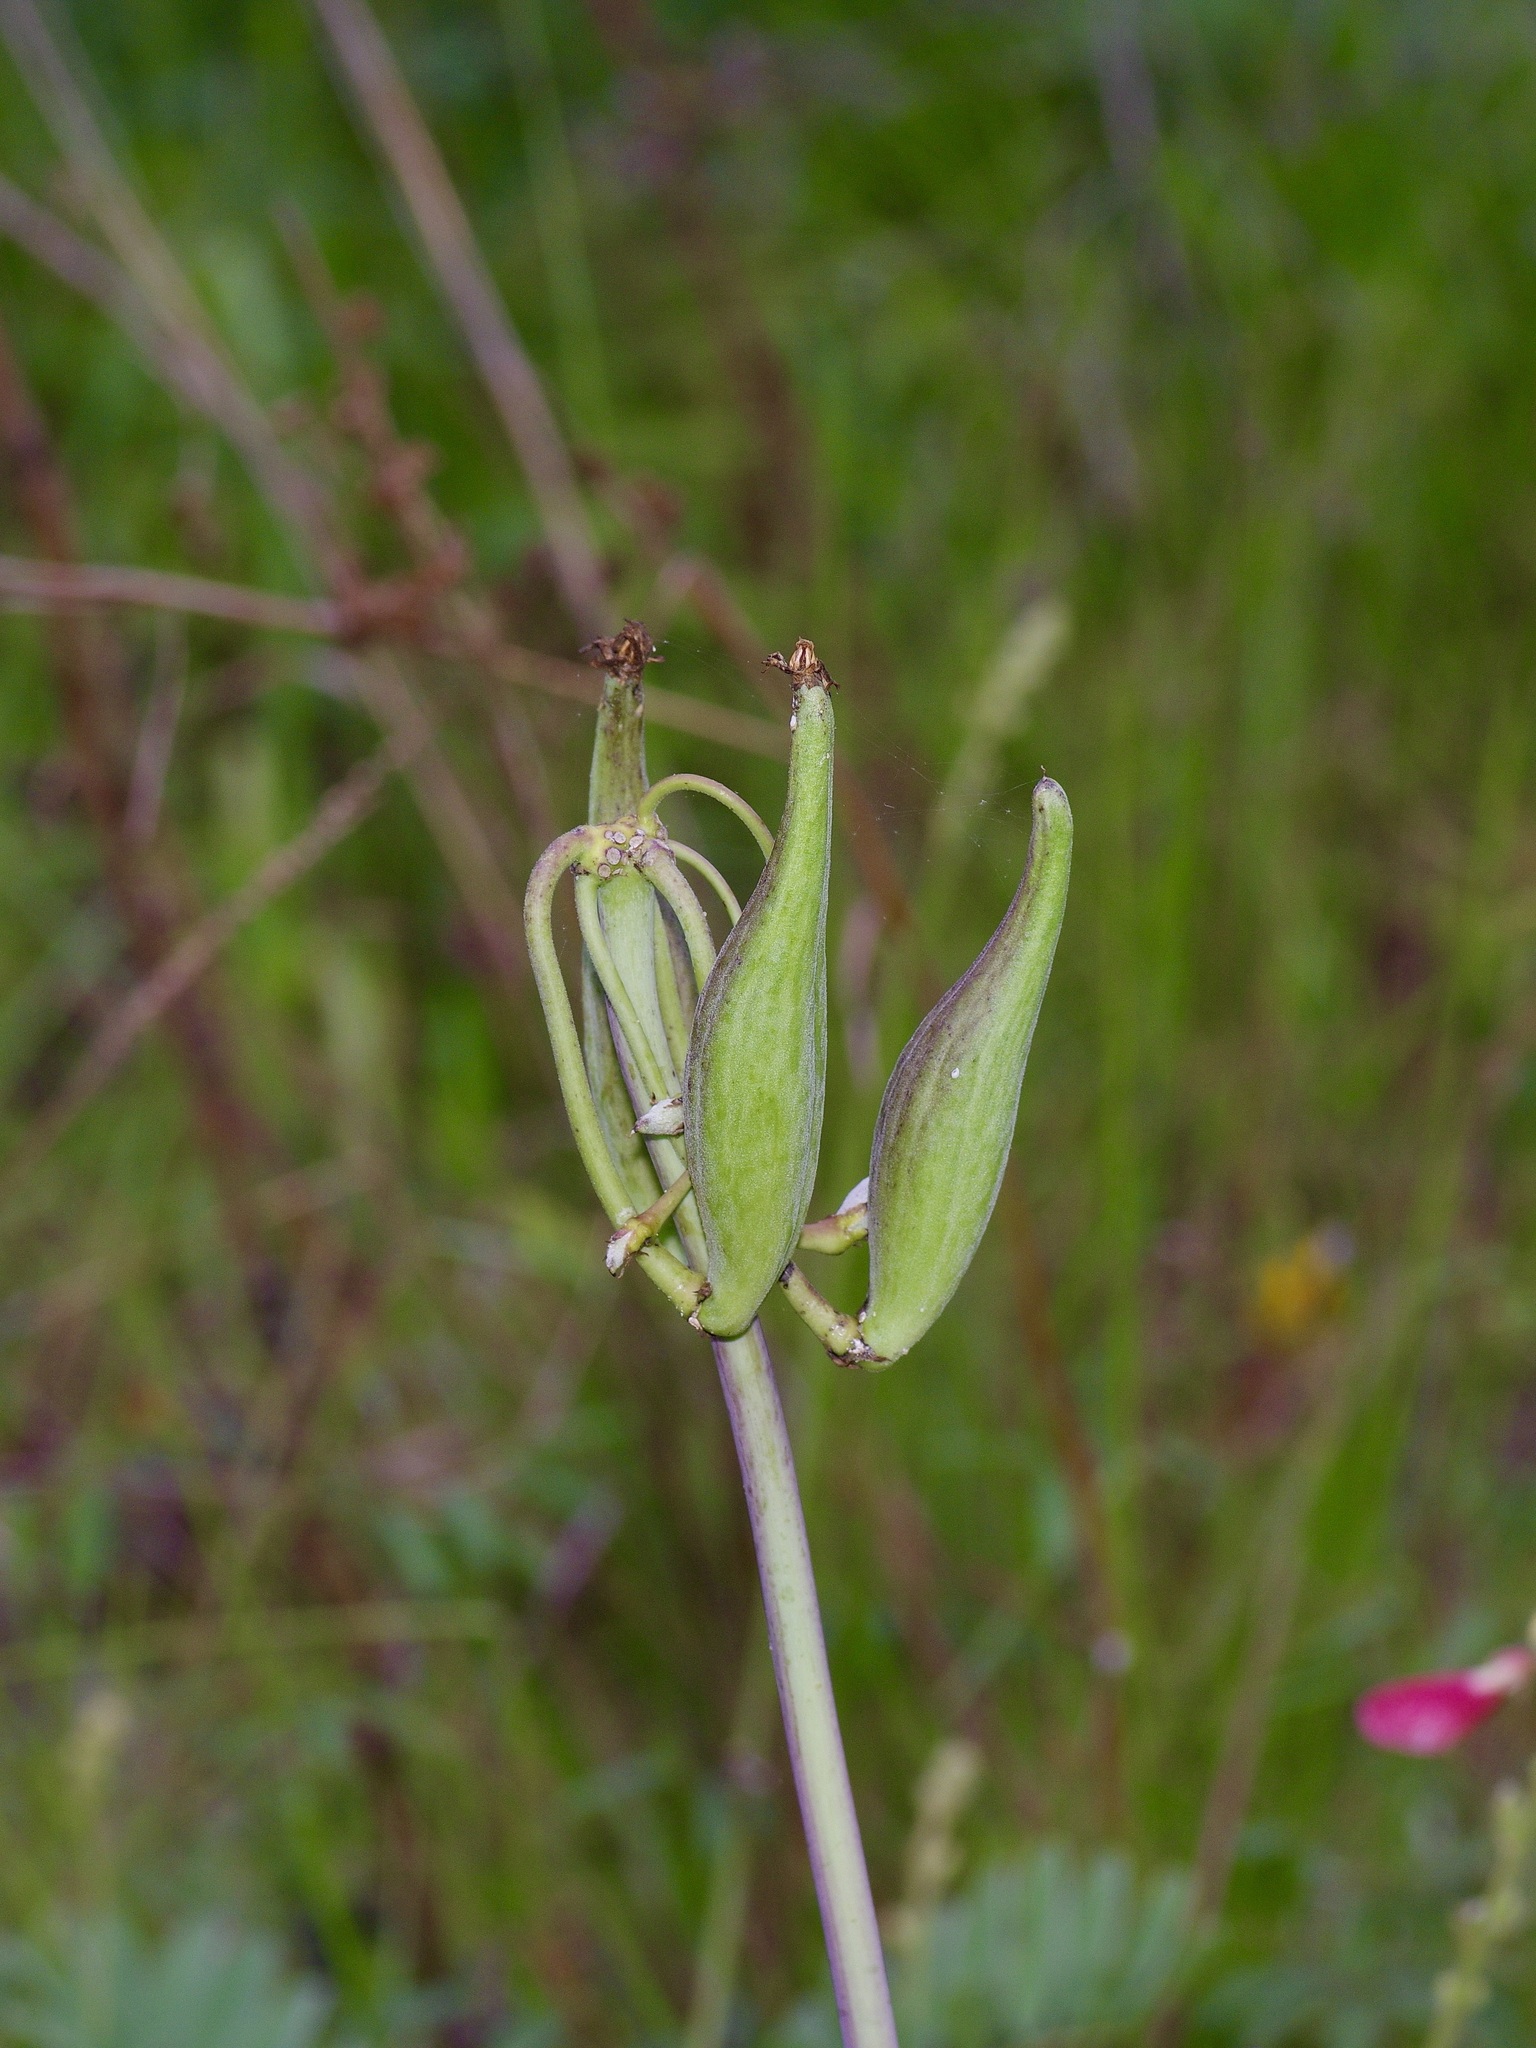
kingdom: Plantae
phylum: Tracheophyta
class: Magnoliopsida
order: Gentianales
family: Apocynaceae
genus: Asclepias
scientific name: Asclepias amplexicaulis
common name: Blunt-leaf milkweed
